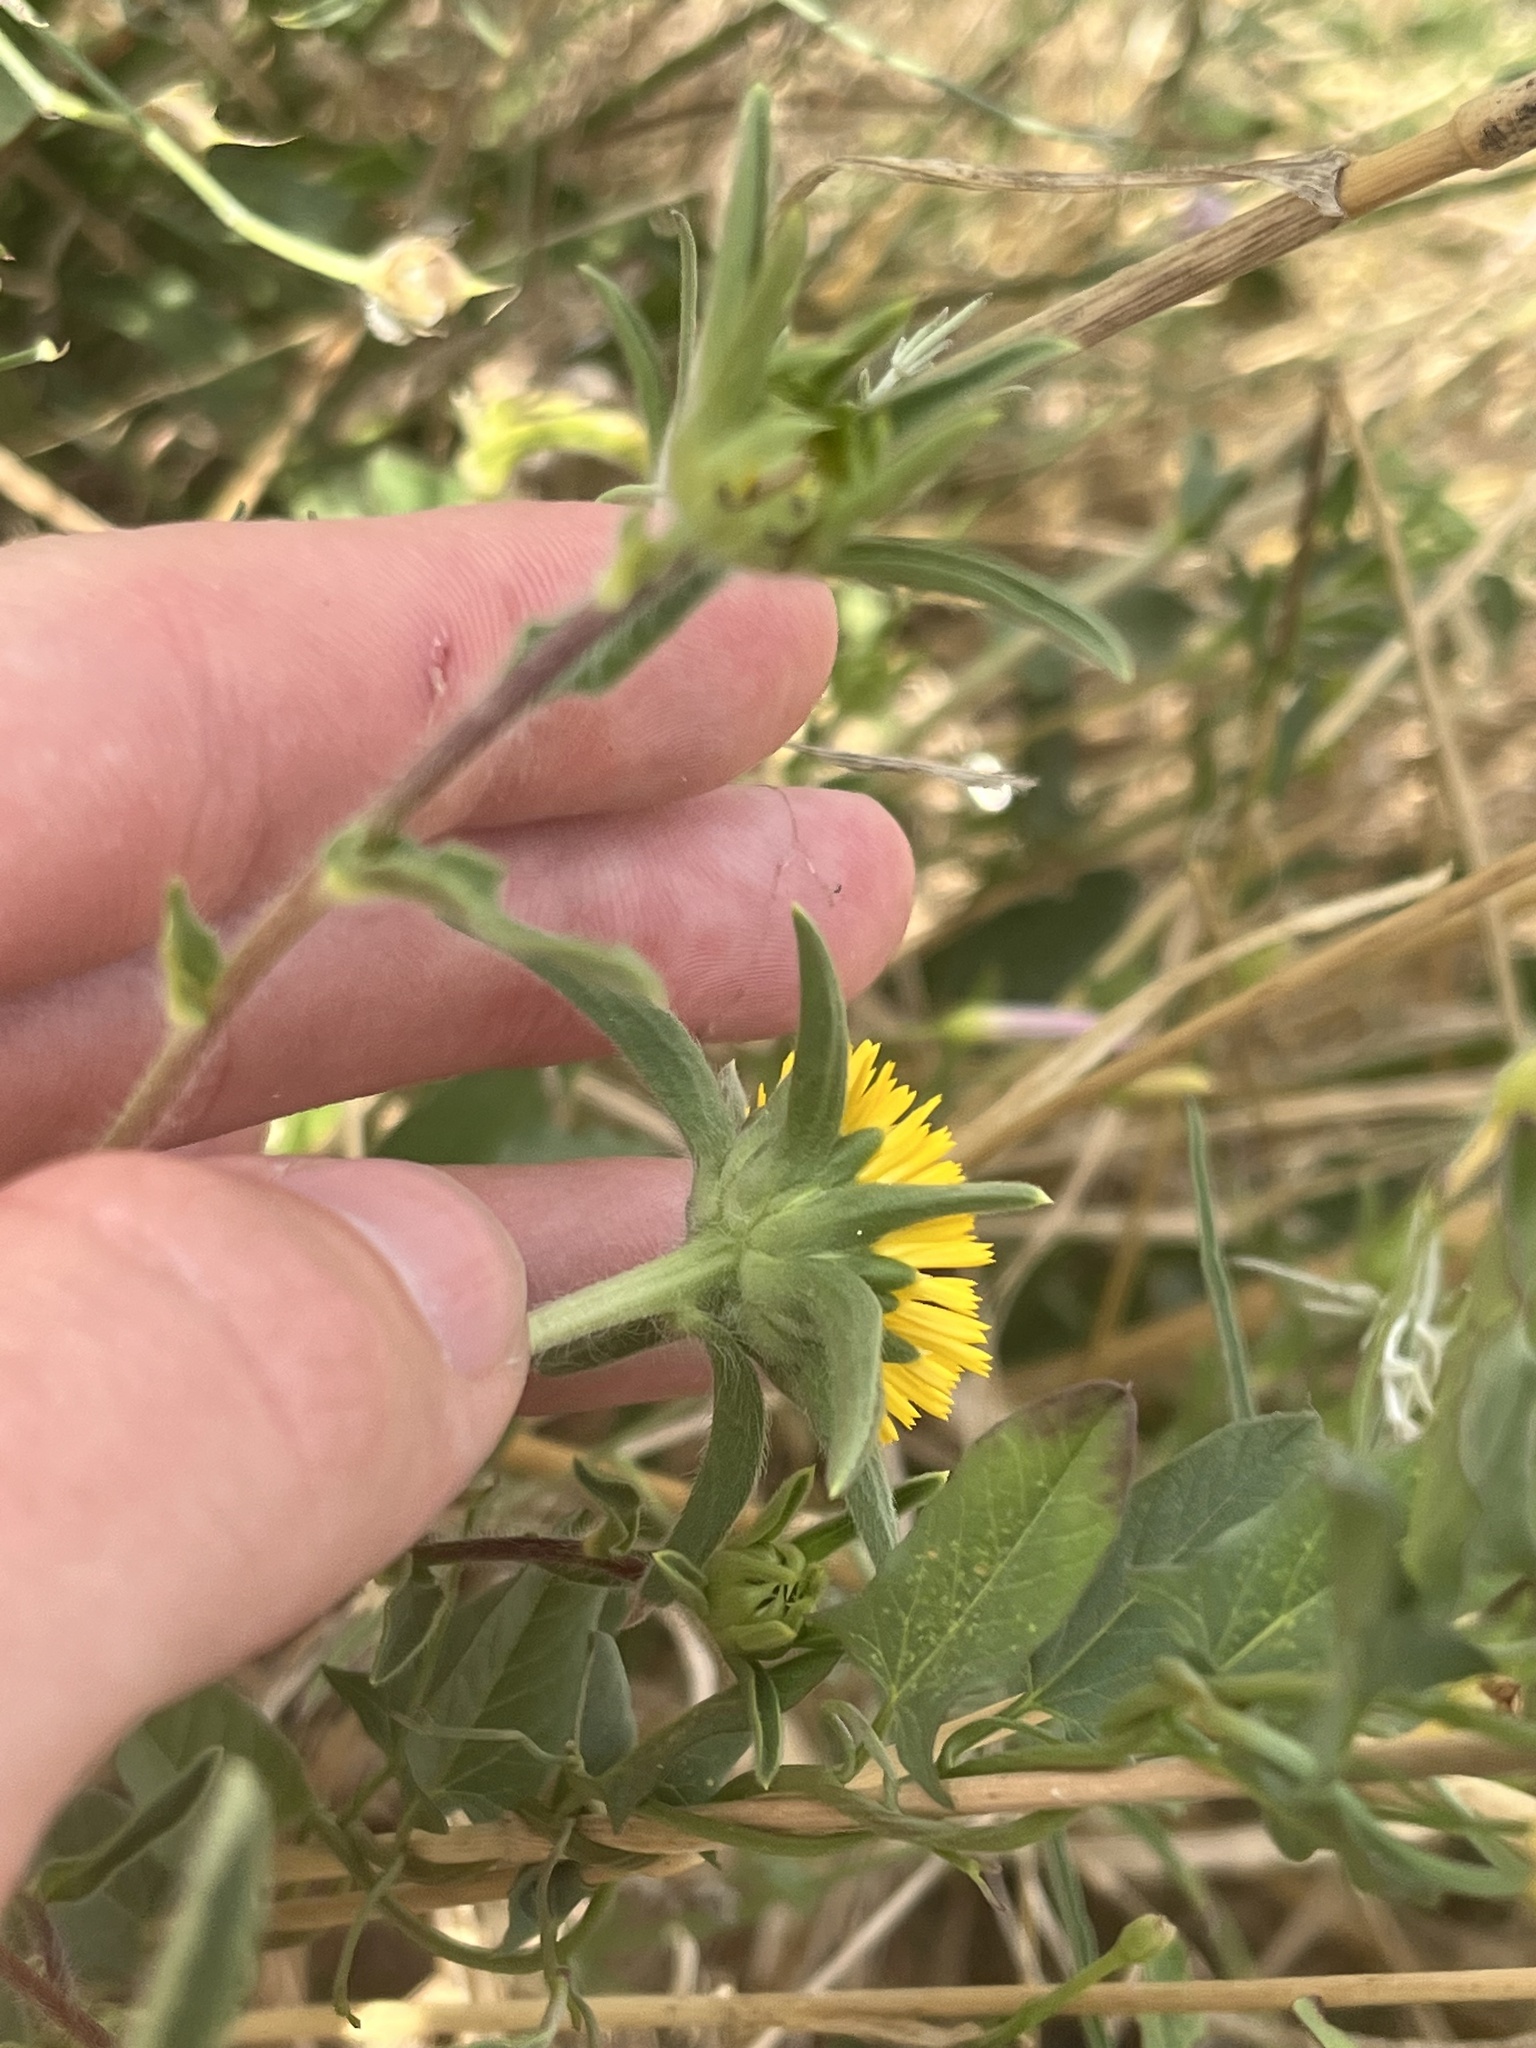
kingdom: Plantae
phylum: Tracheophyta
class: Magnoliopsida
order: Asterales
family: Asteraceae
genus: Pallenis
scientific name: Pallenis spinosa
